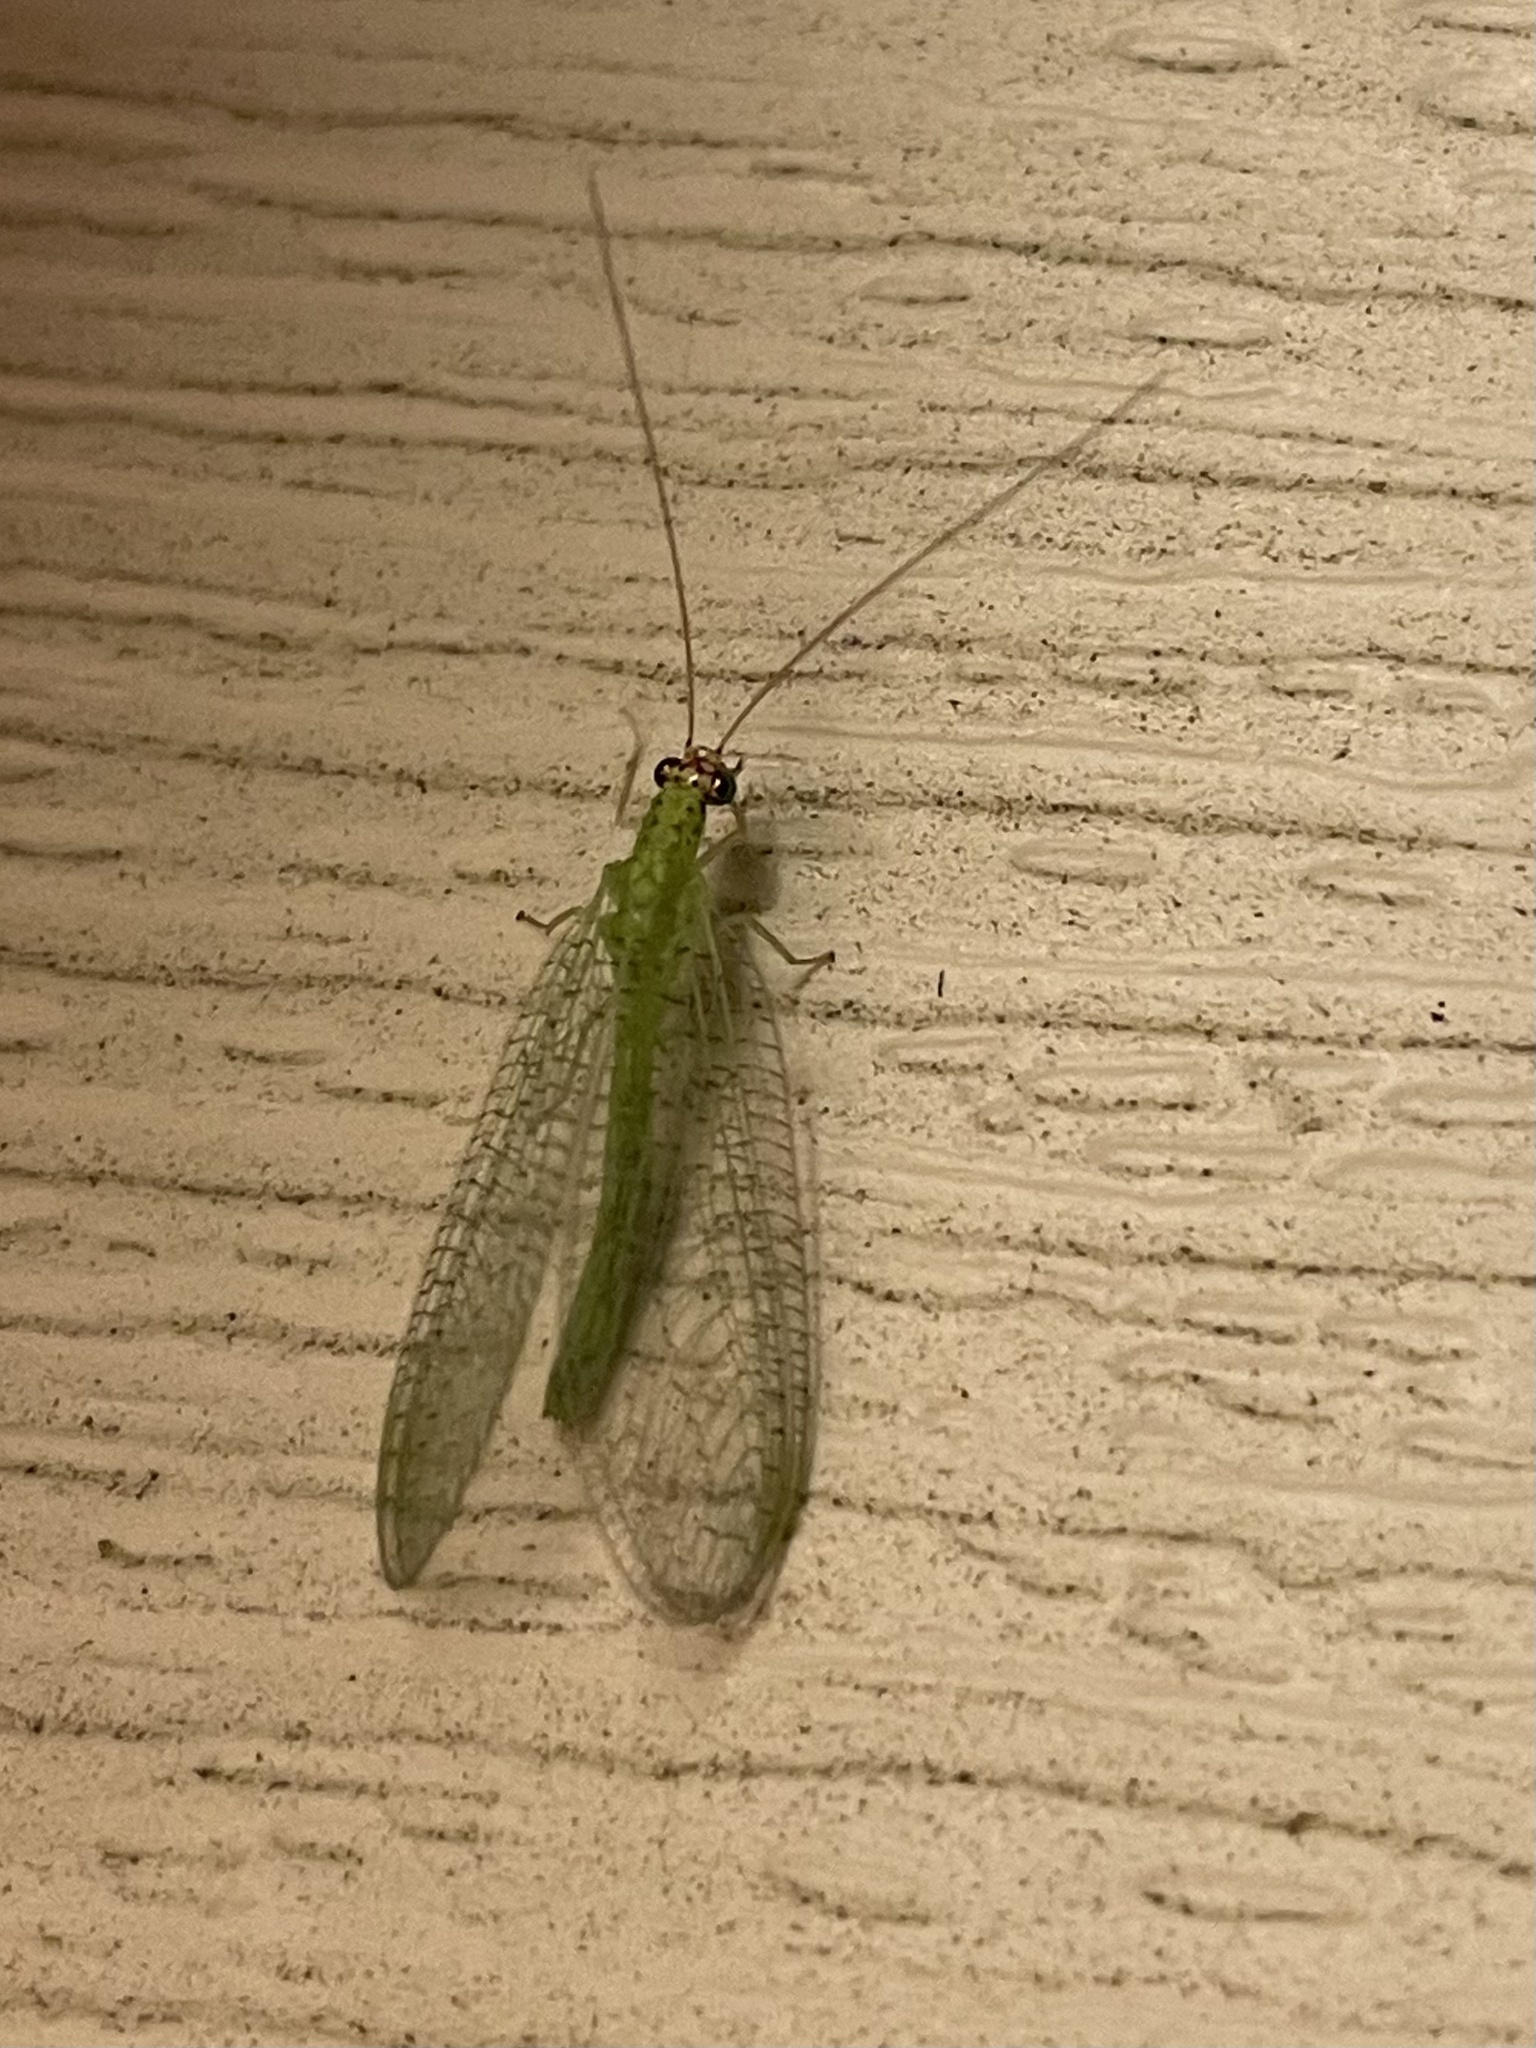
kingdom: Animalia
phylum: Arthropoda
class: Insecta
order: Neuroptera
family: Chrysopidae
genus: Chrysopa
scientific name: Chrysopa oculata
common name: Golden-eyed lacewing
